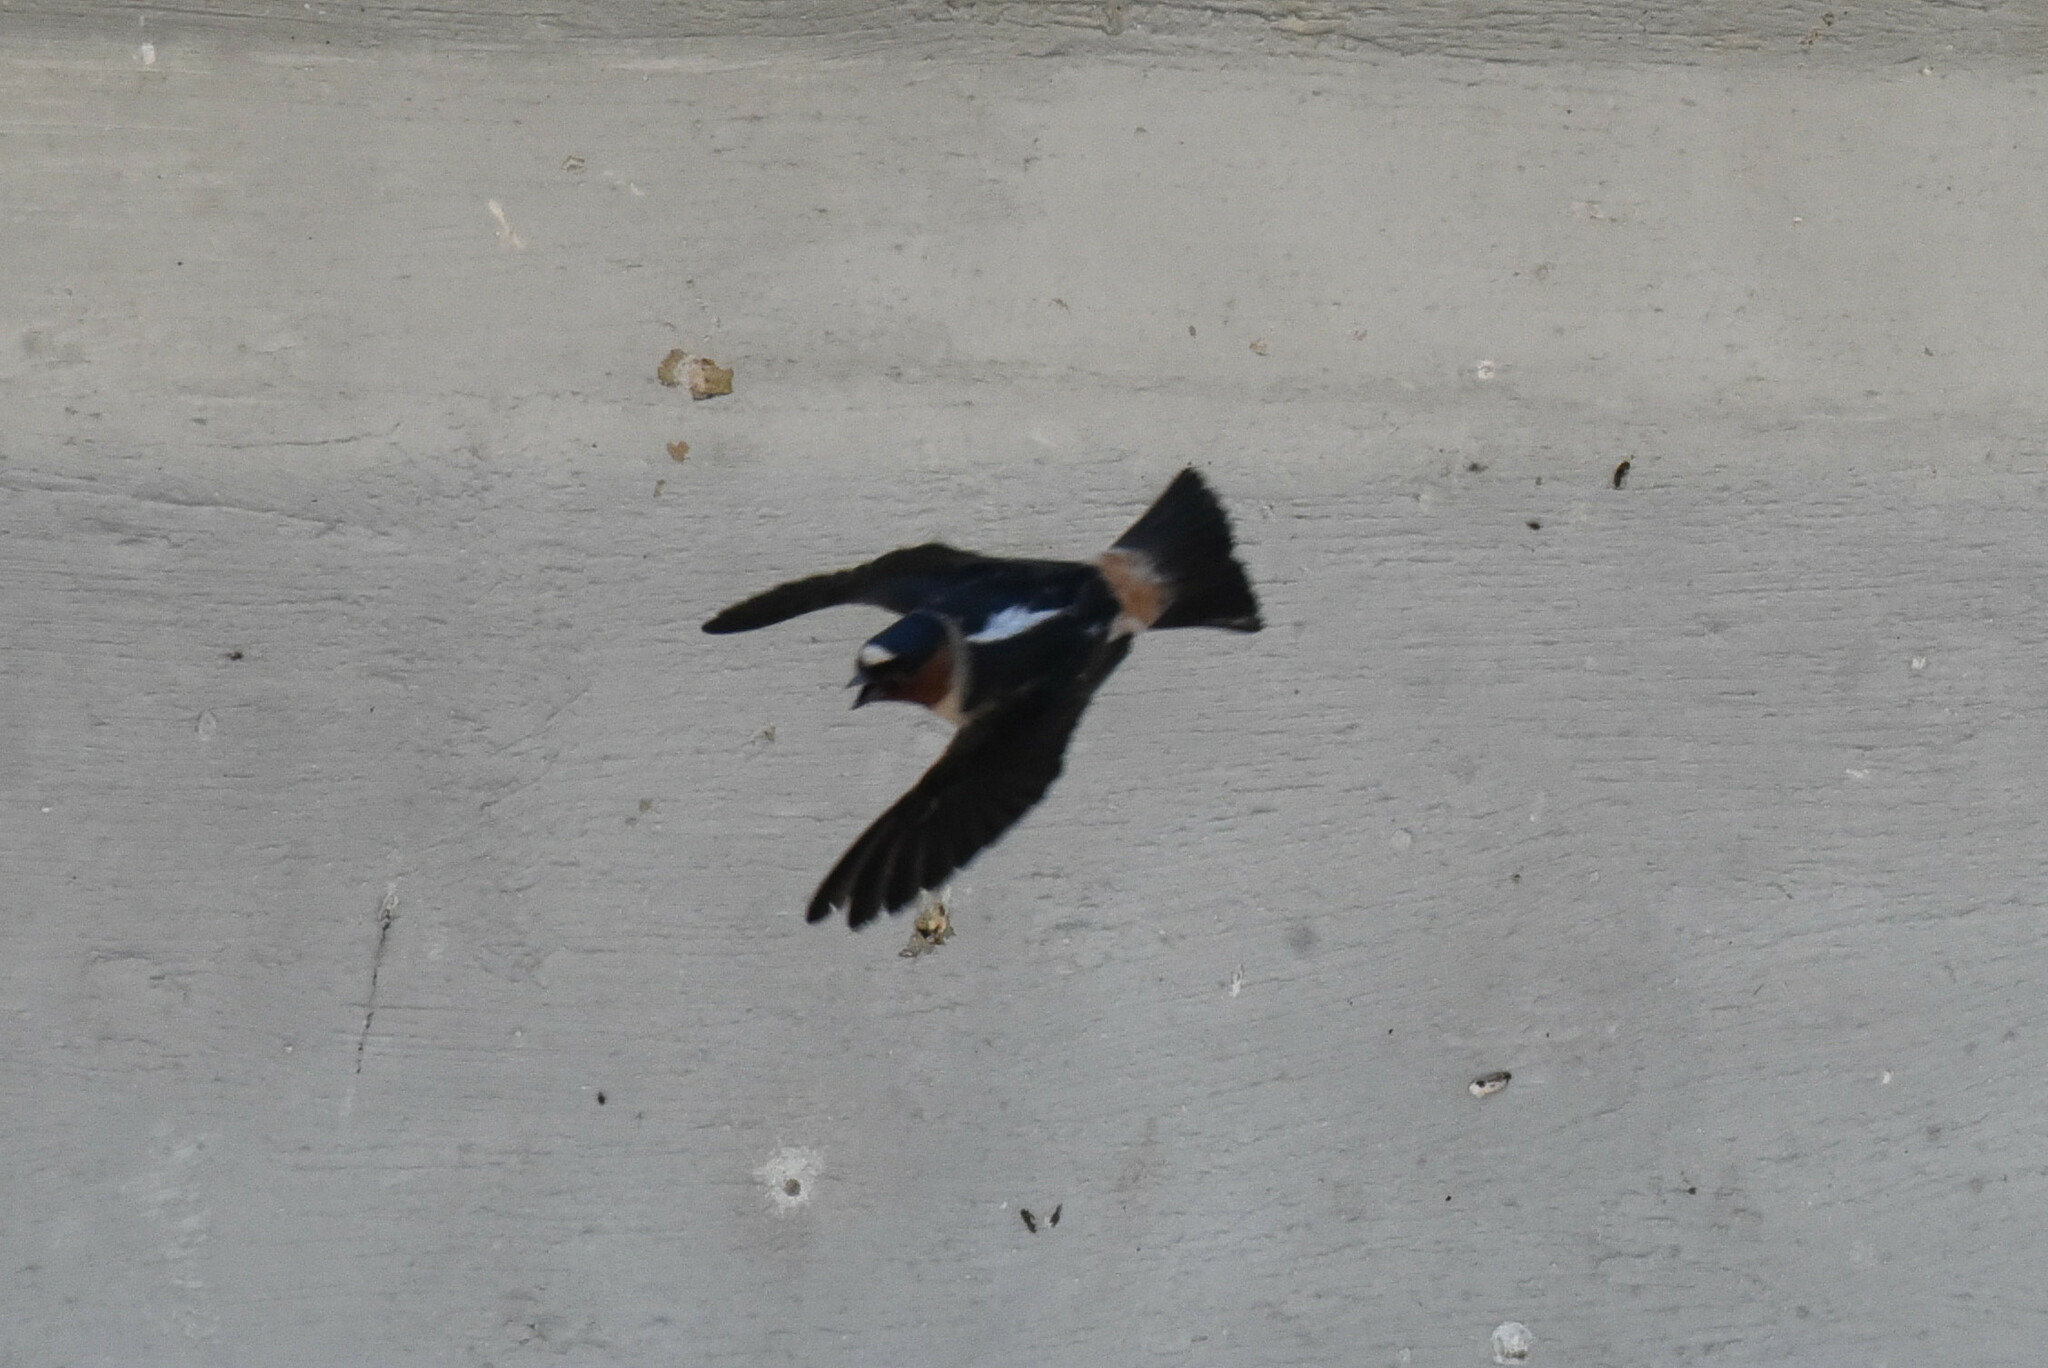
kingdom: Animalia
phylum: Chordata
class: Aves
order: Passeriformes
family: Hirundinidae
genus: Petrochelidon
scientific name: Petrochelidon pyrrhonota
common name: American cliff swallow
